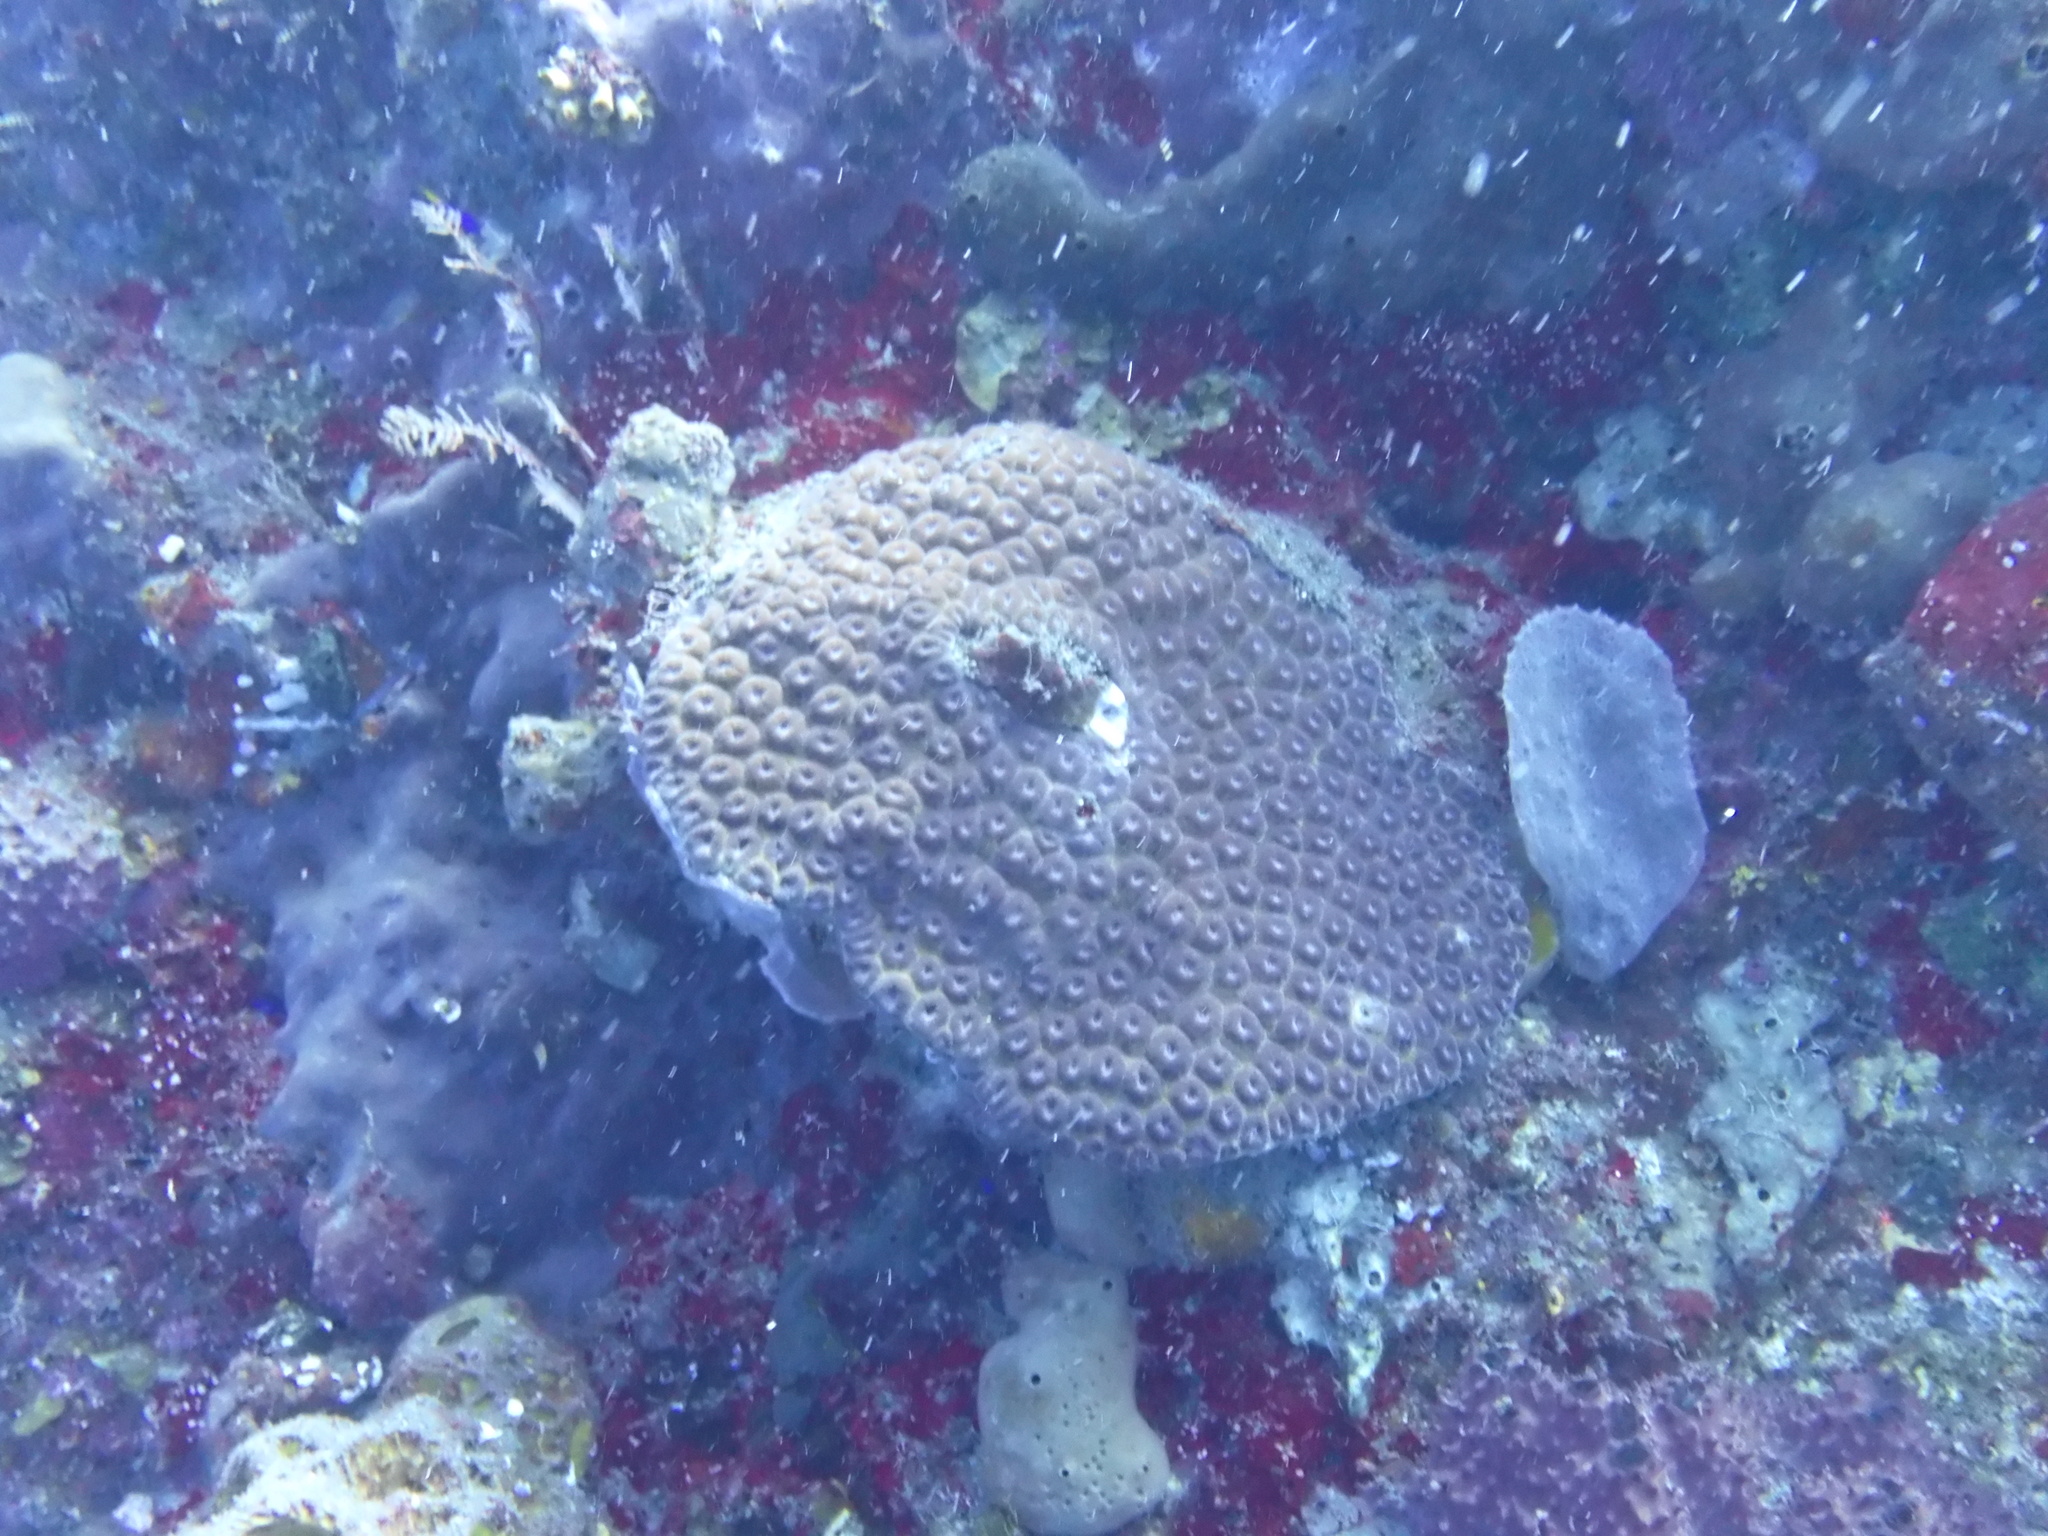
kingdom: Animalia
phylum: Cnidaria
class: Anthozoa
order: Scleractinia
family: Montastraeidae
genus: Montastraea
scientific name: Montastraea cavernosa
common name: Great star coral
